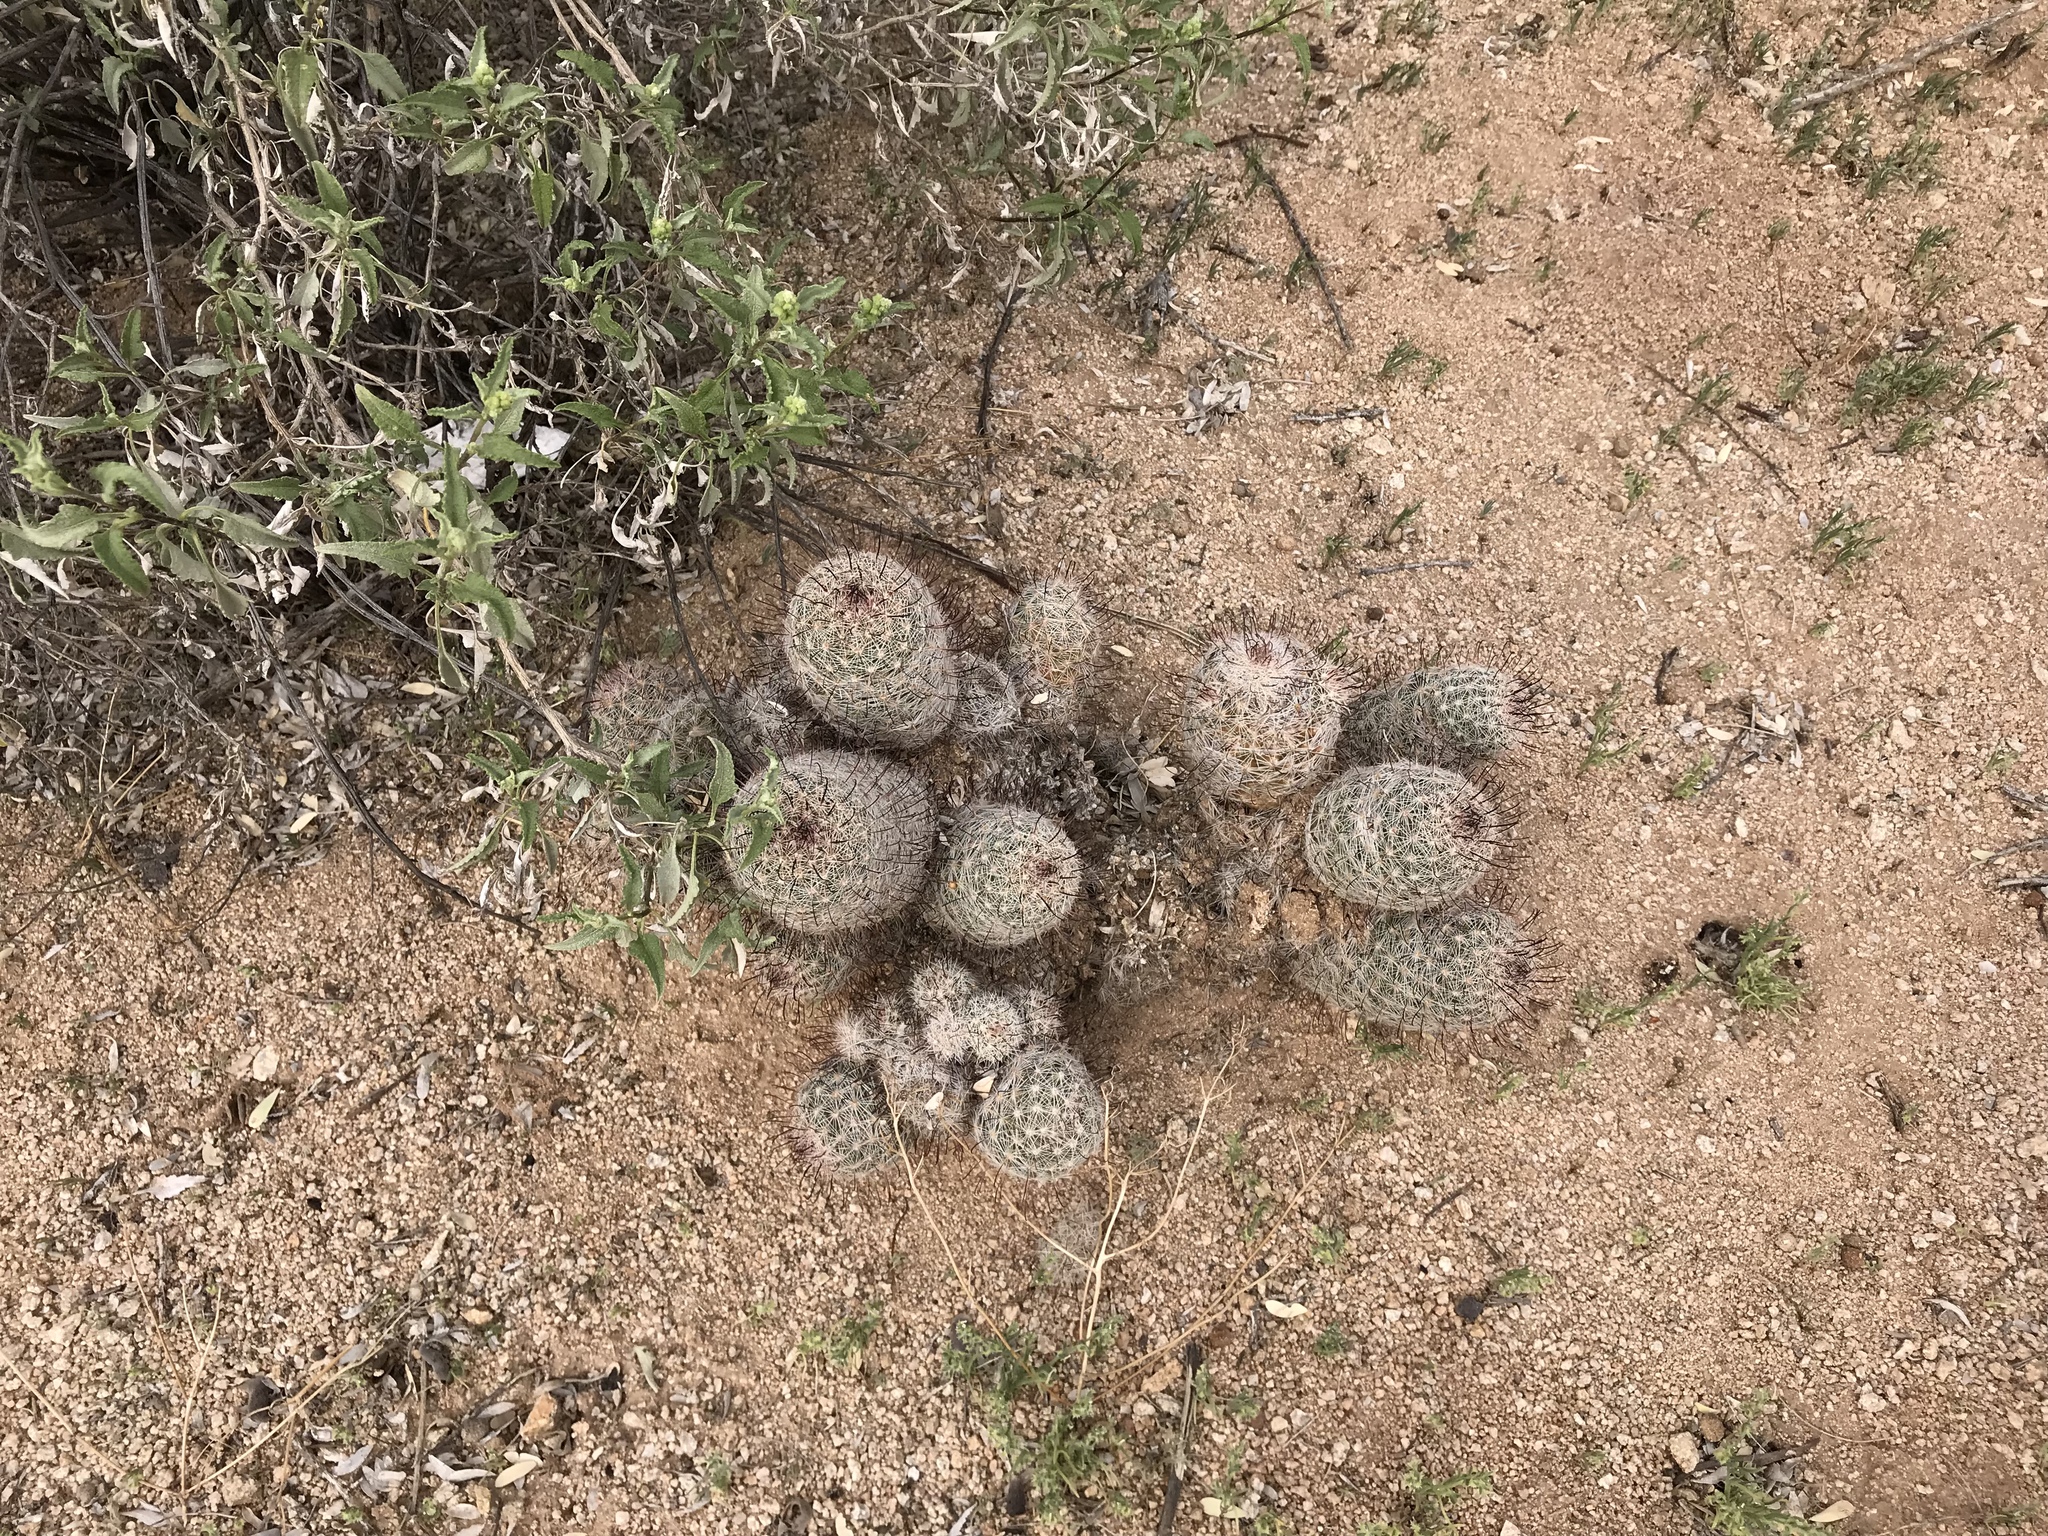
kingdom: Plantae
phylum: Tracheophyta
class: Magnoliopsida
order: Caryophyllales
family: Cactaceae
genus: Cochemiea
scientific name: Cochemiea grahamii
